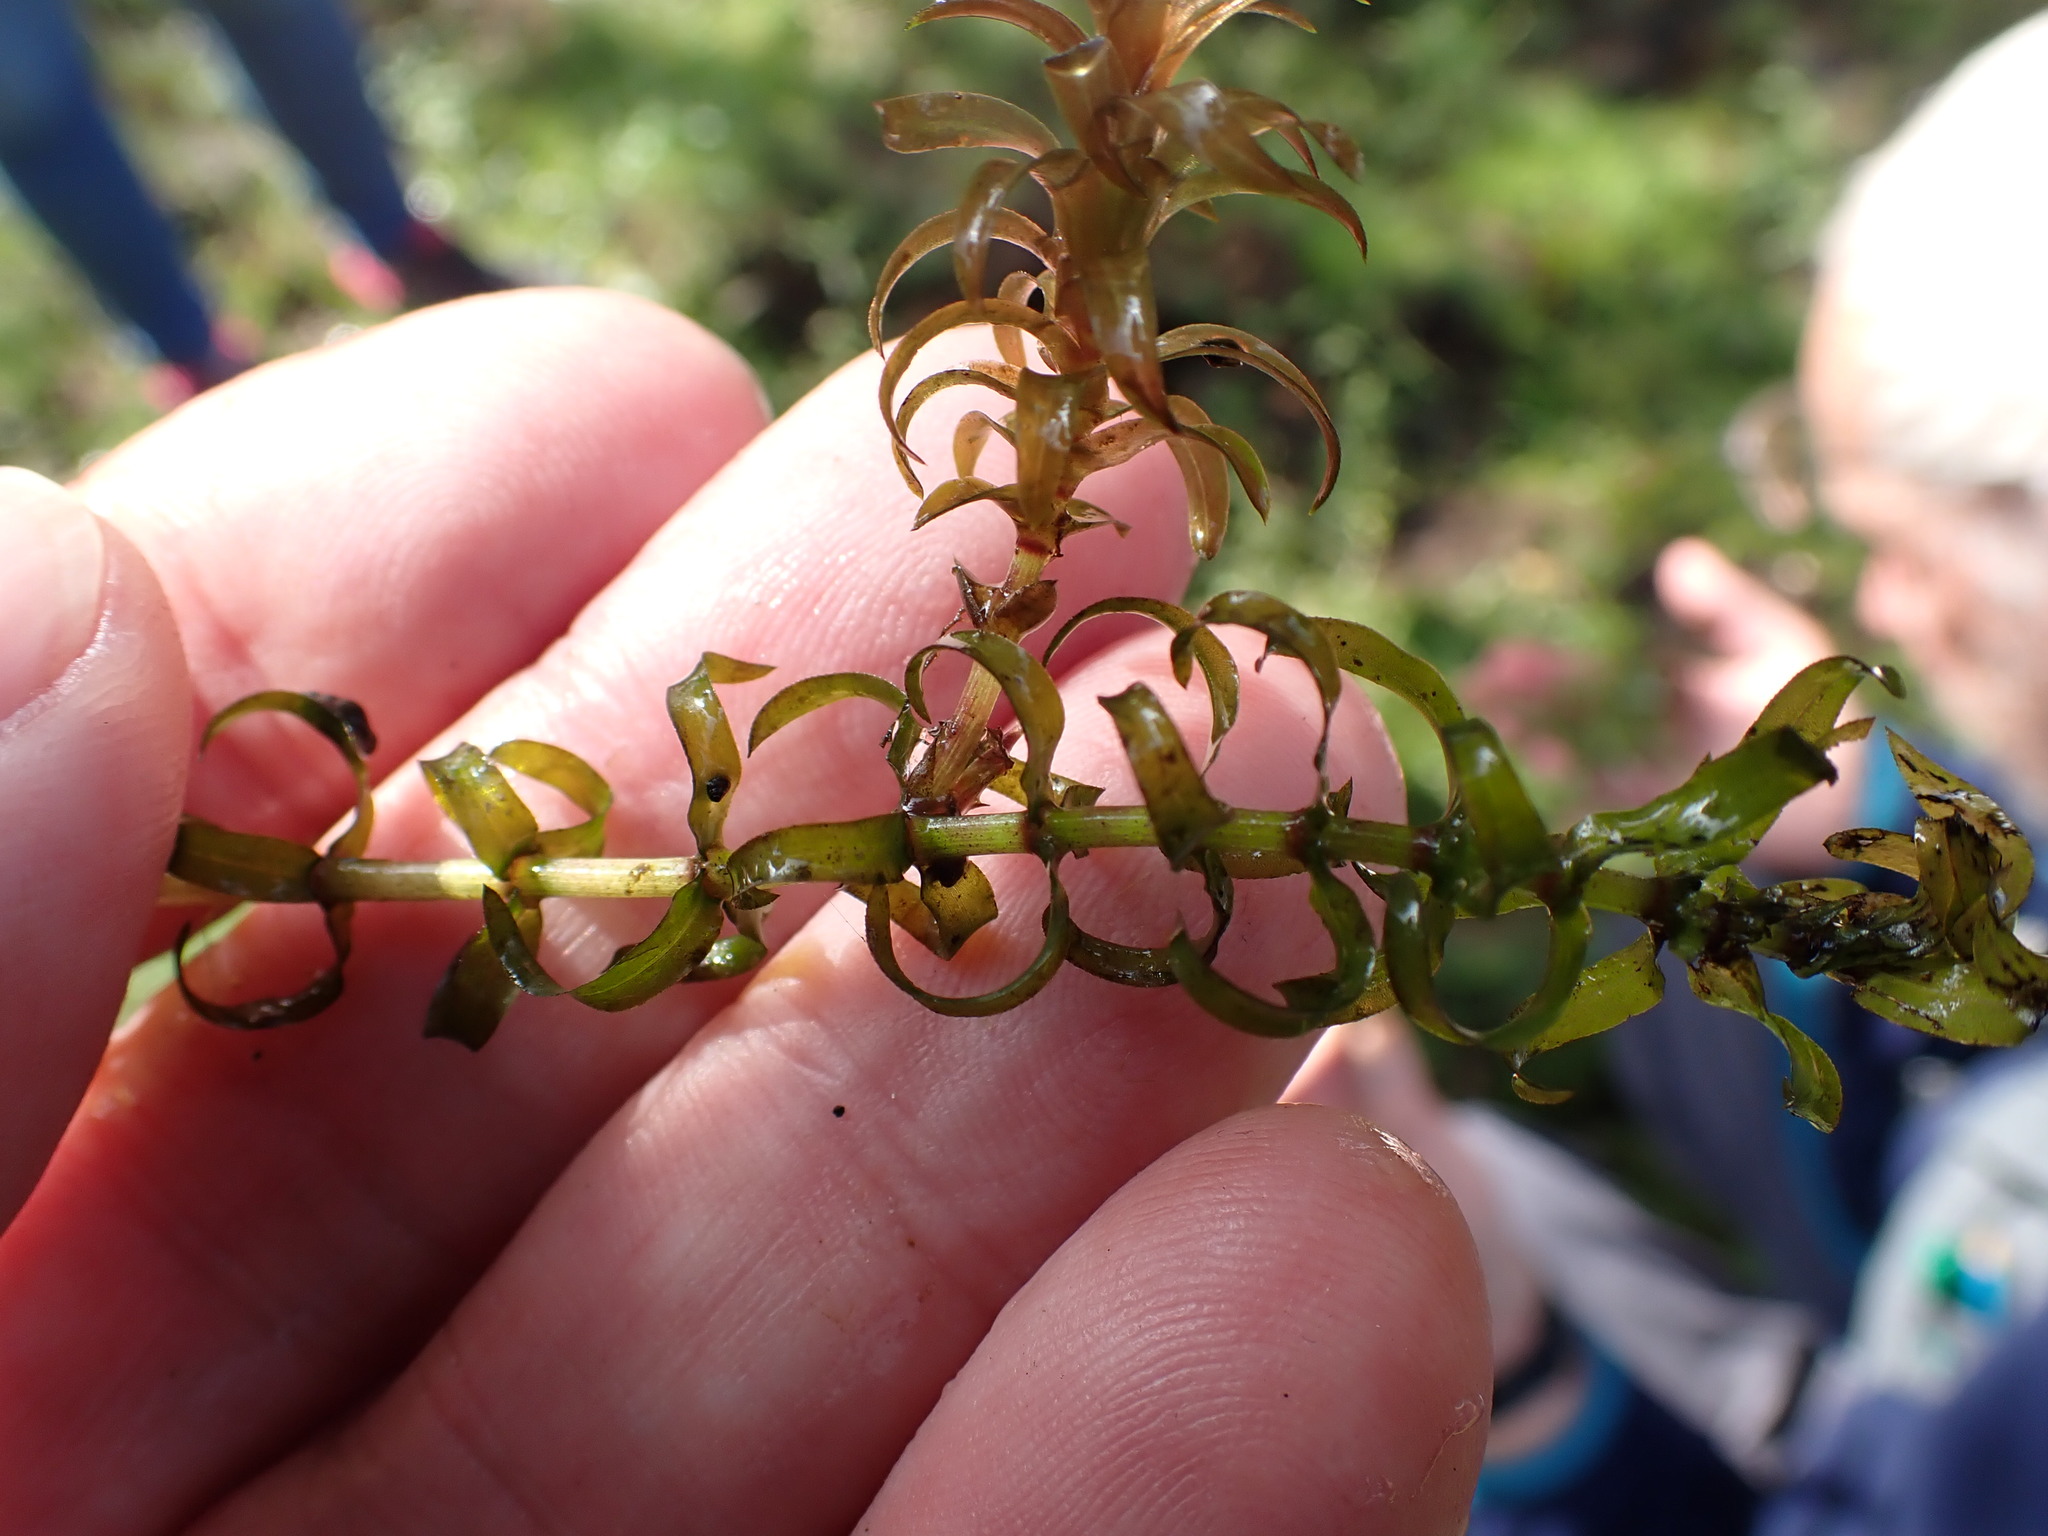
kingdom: Plantae
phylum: Tracheophyta
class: Liliopsida
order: Alismatales
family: Hydrocharitaceae
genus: Elodea
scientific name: Elodea nuttallii
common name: Nuttall's waterweed
